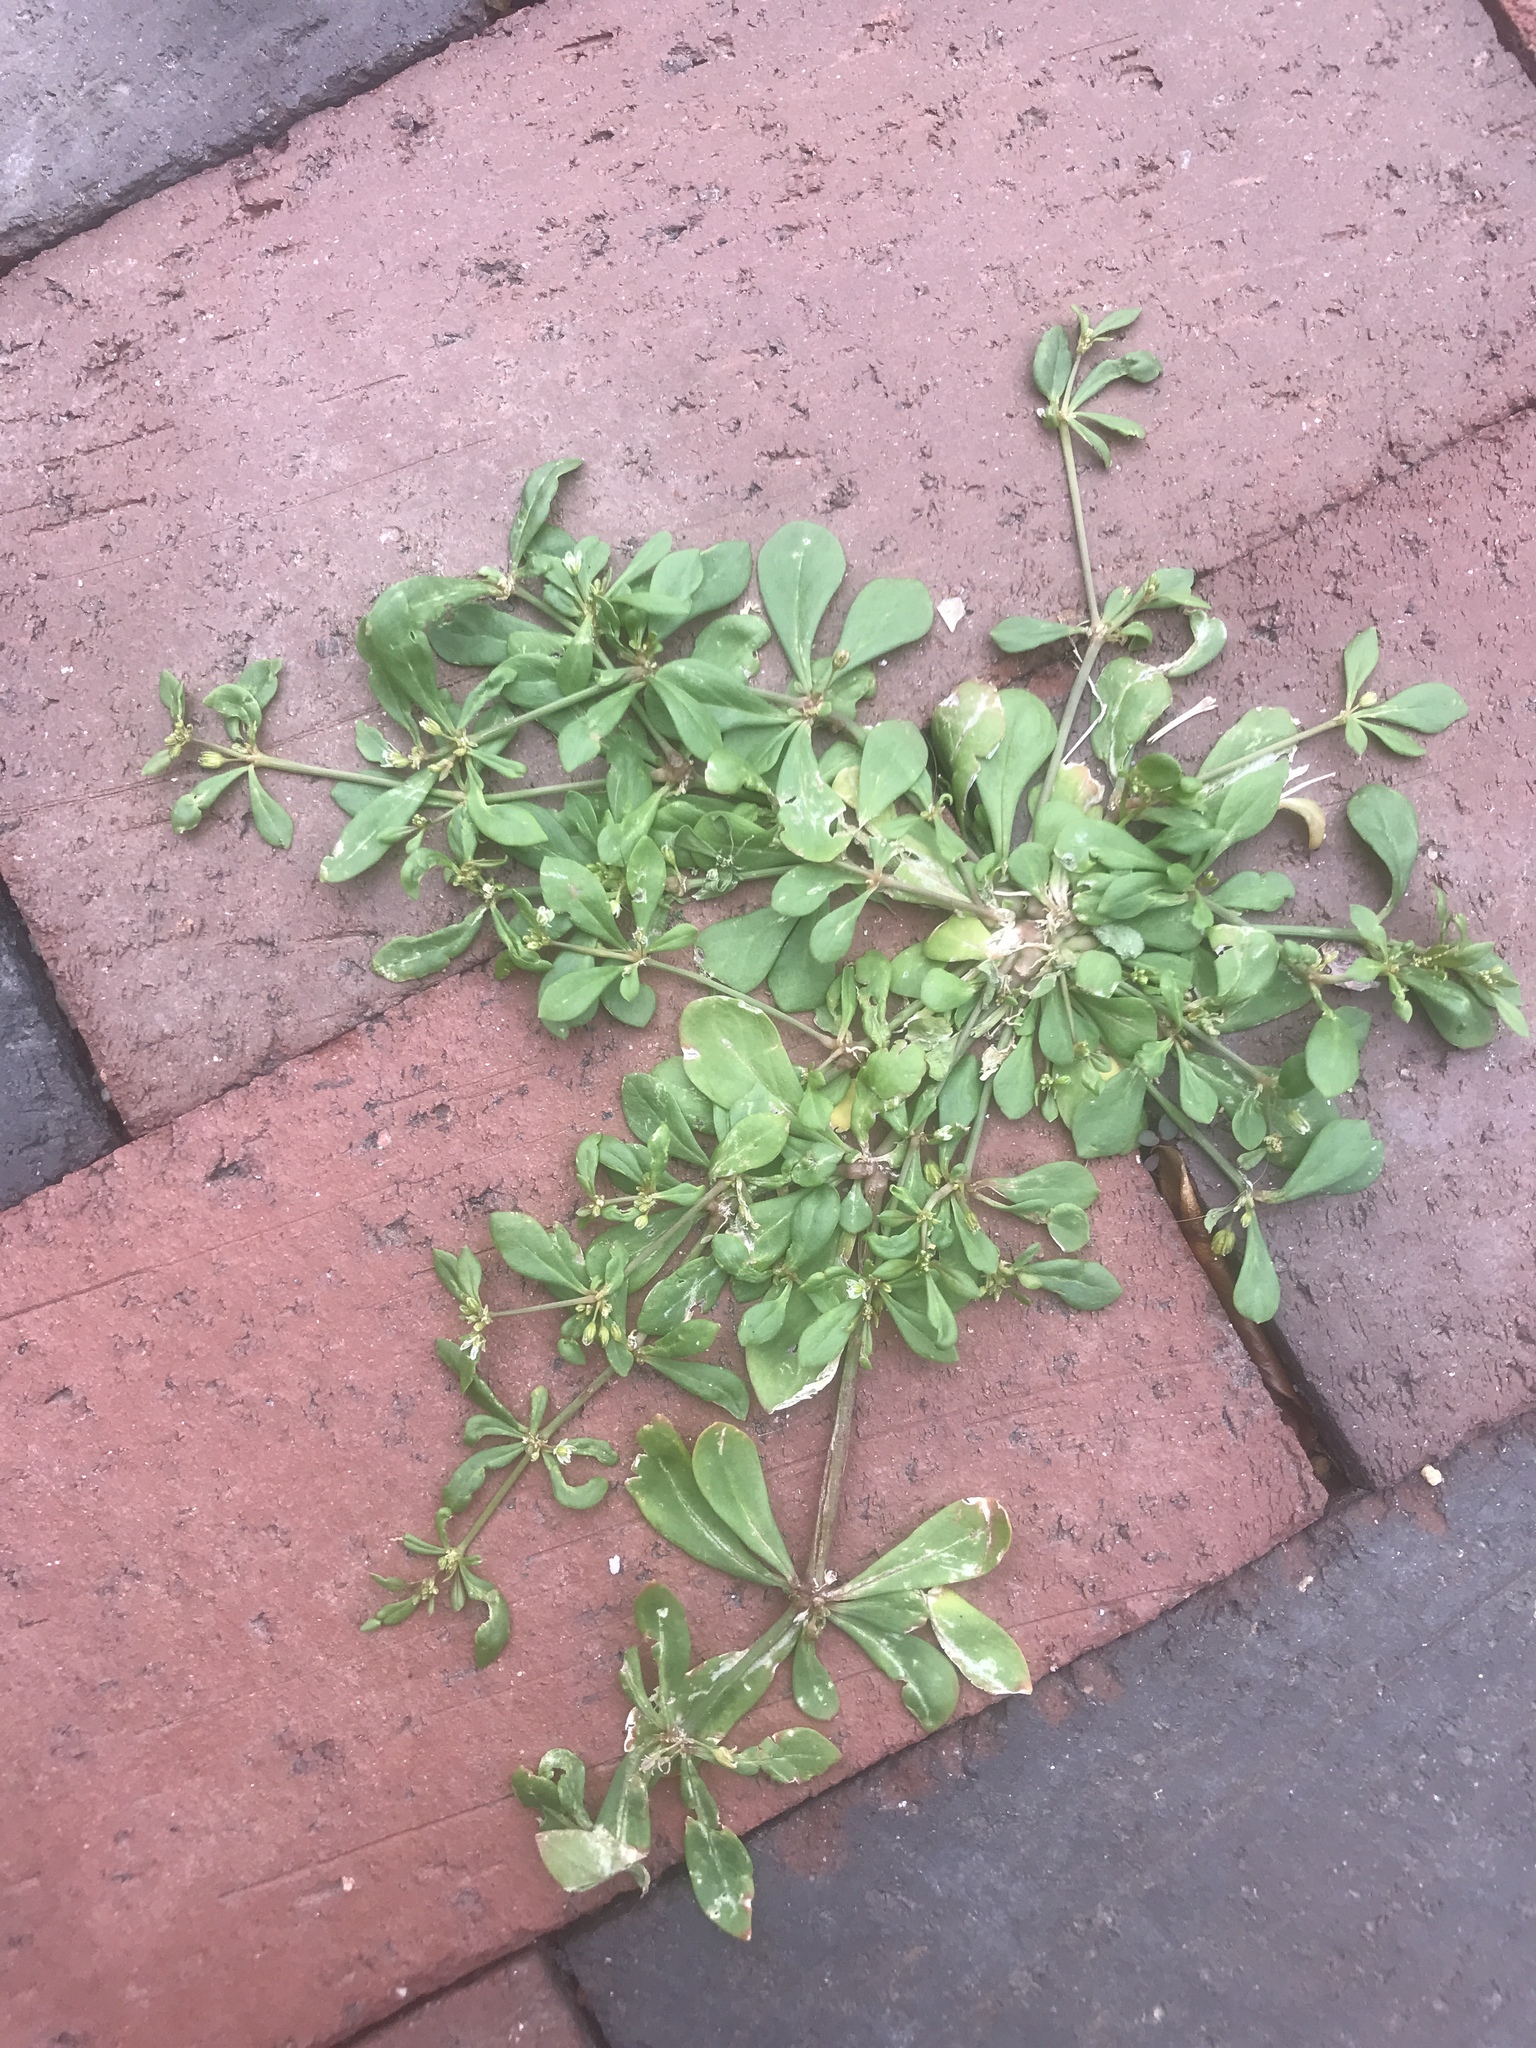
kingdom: Plantae
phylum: Tracheophyta
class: Magnoliopsida
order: Caryophyllales
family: Molluginaceae
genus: Mollugo
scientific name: Mollugo verticillata
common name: Green carpetweed
